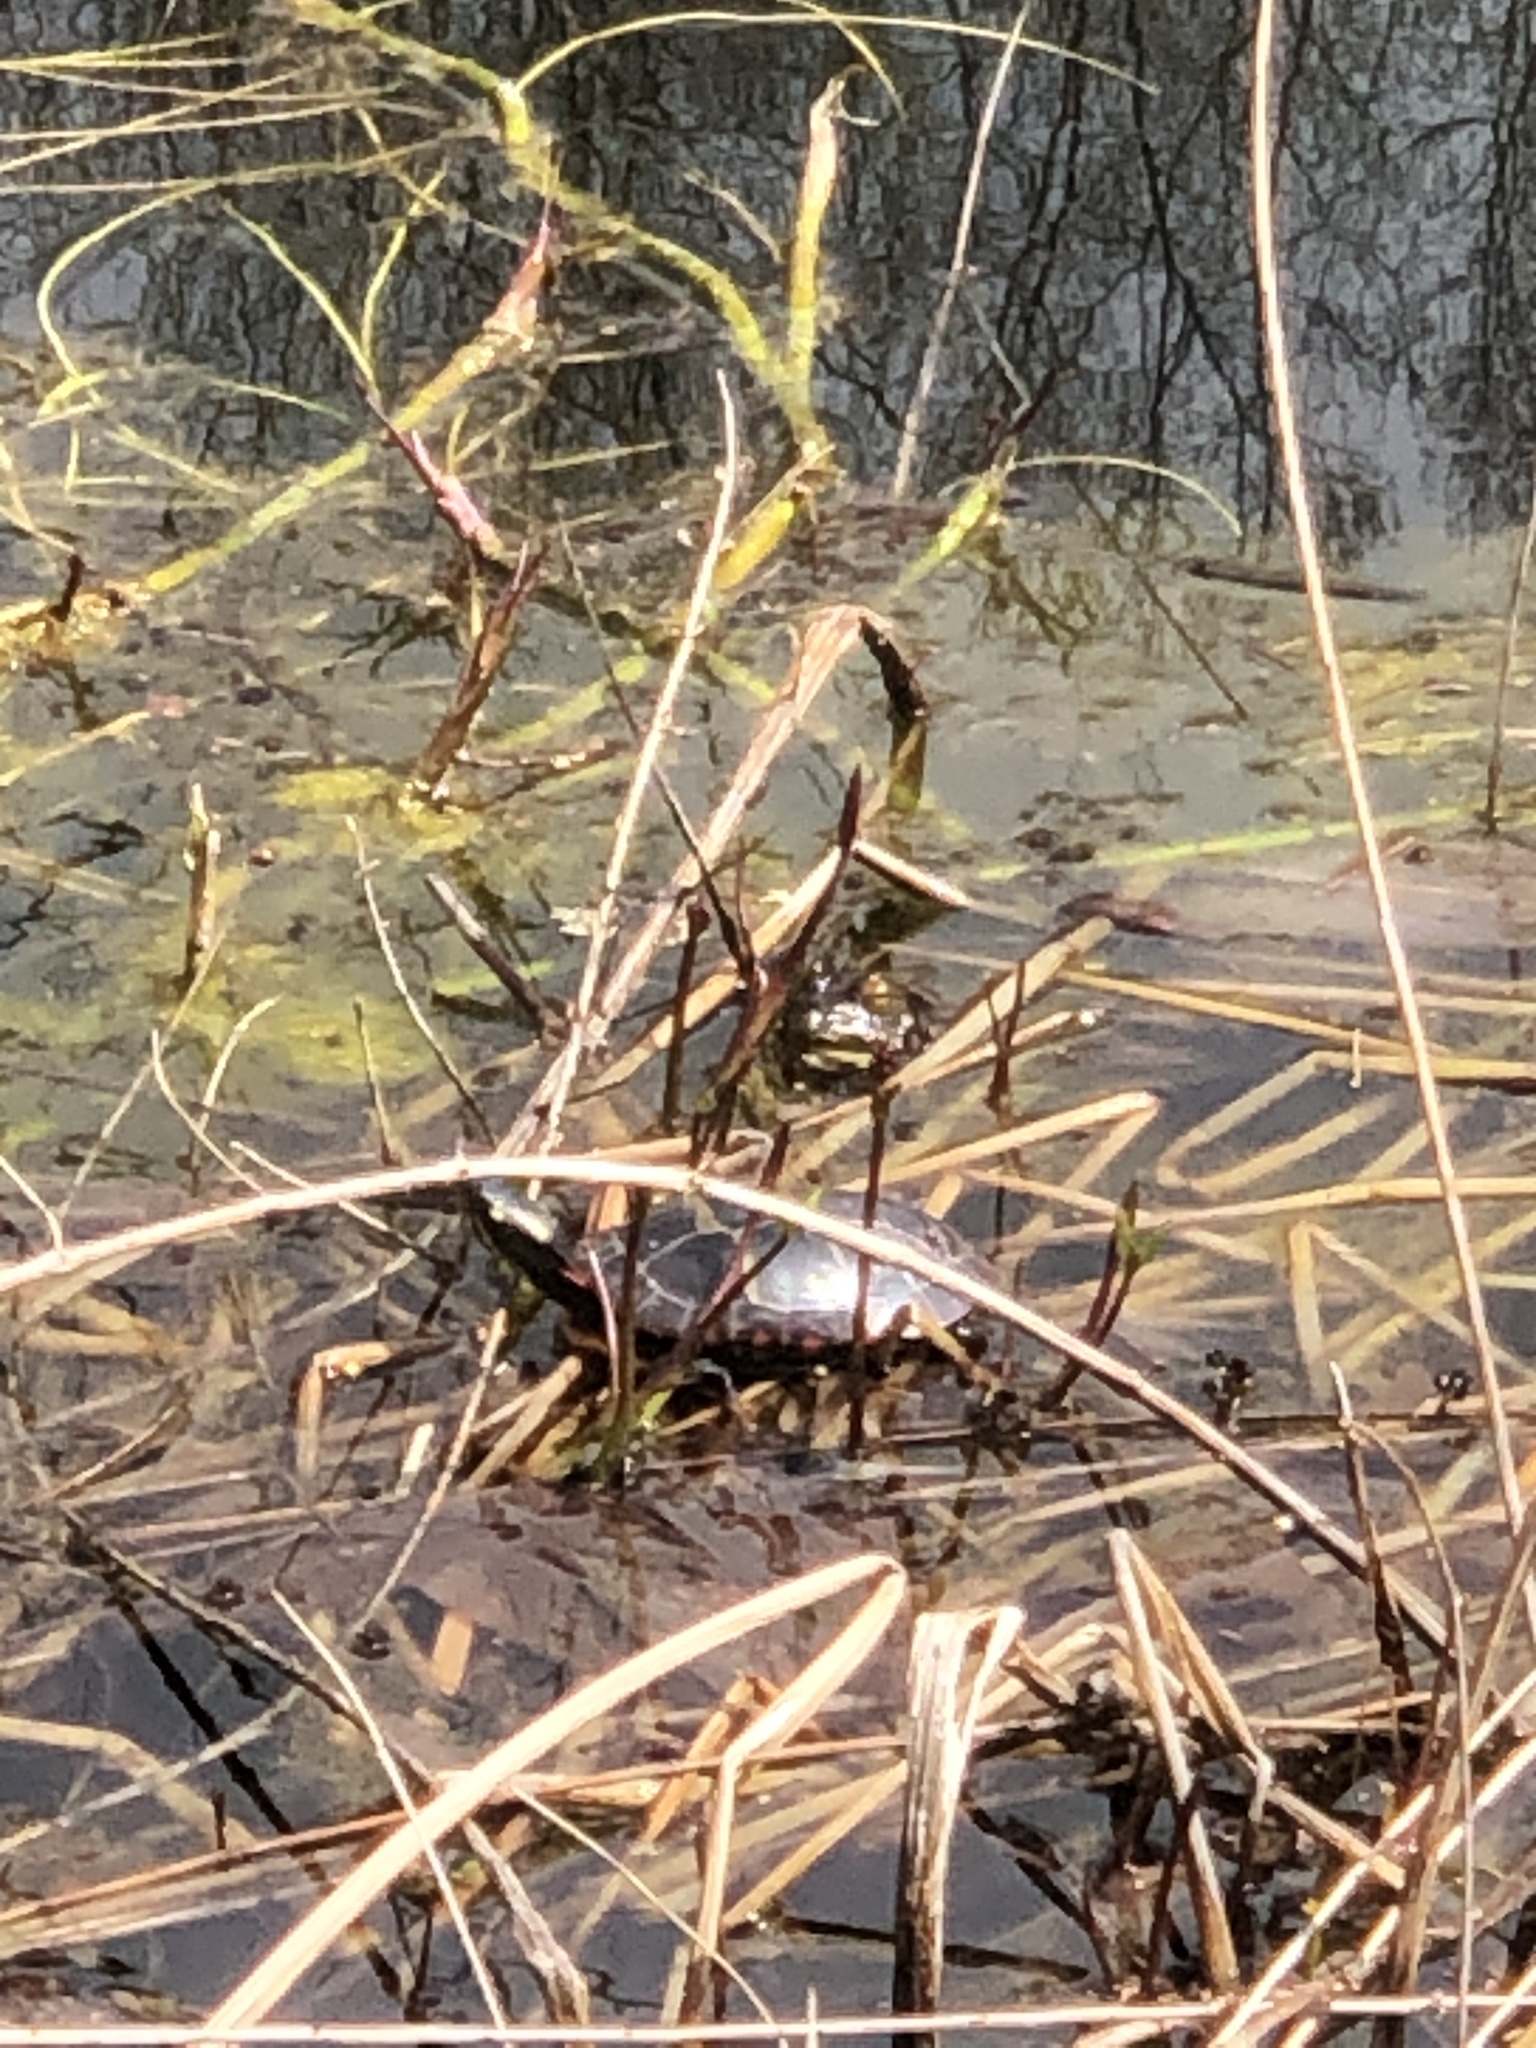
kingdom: Animalia
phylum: Chordata
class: Testudines
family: Emydidae
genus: Chrysemys
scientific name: Chrysemys picta
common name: Painted turtle
